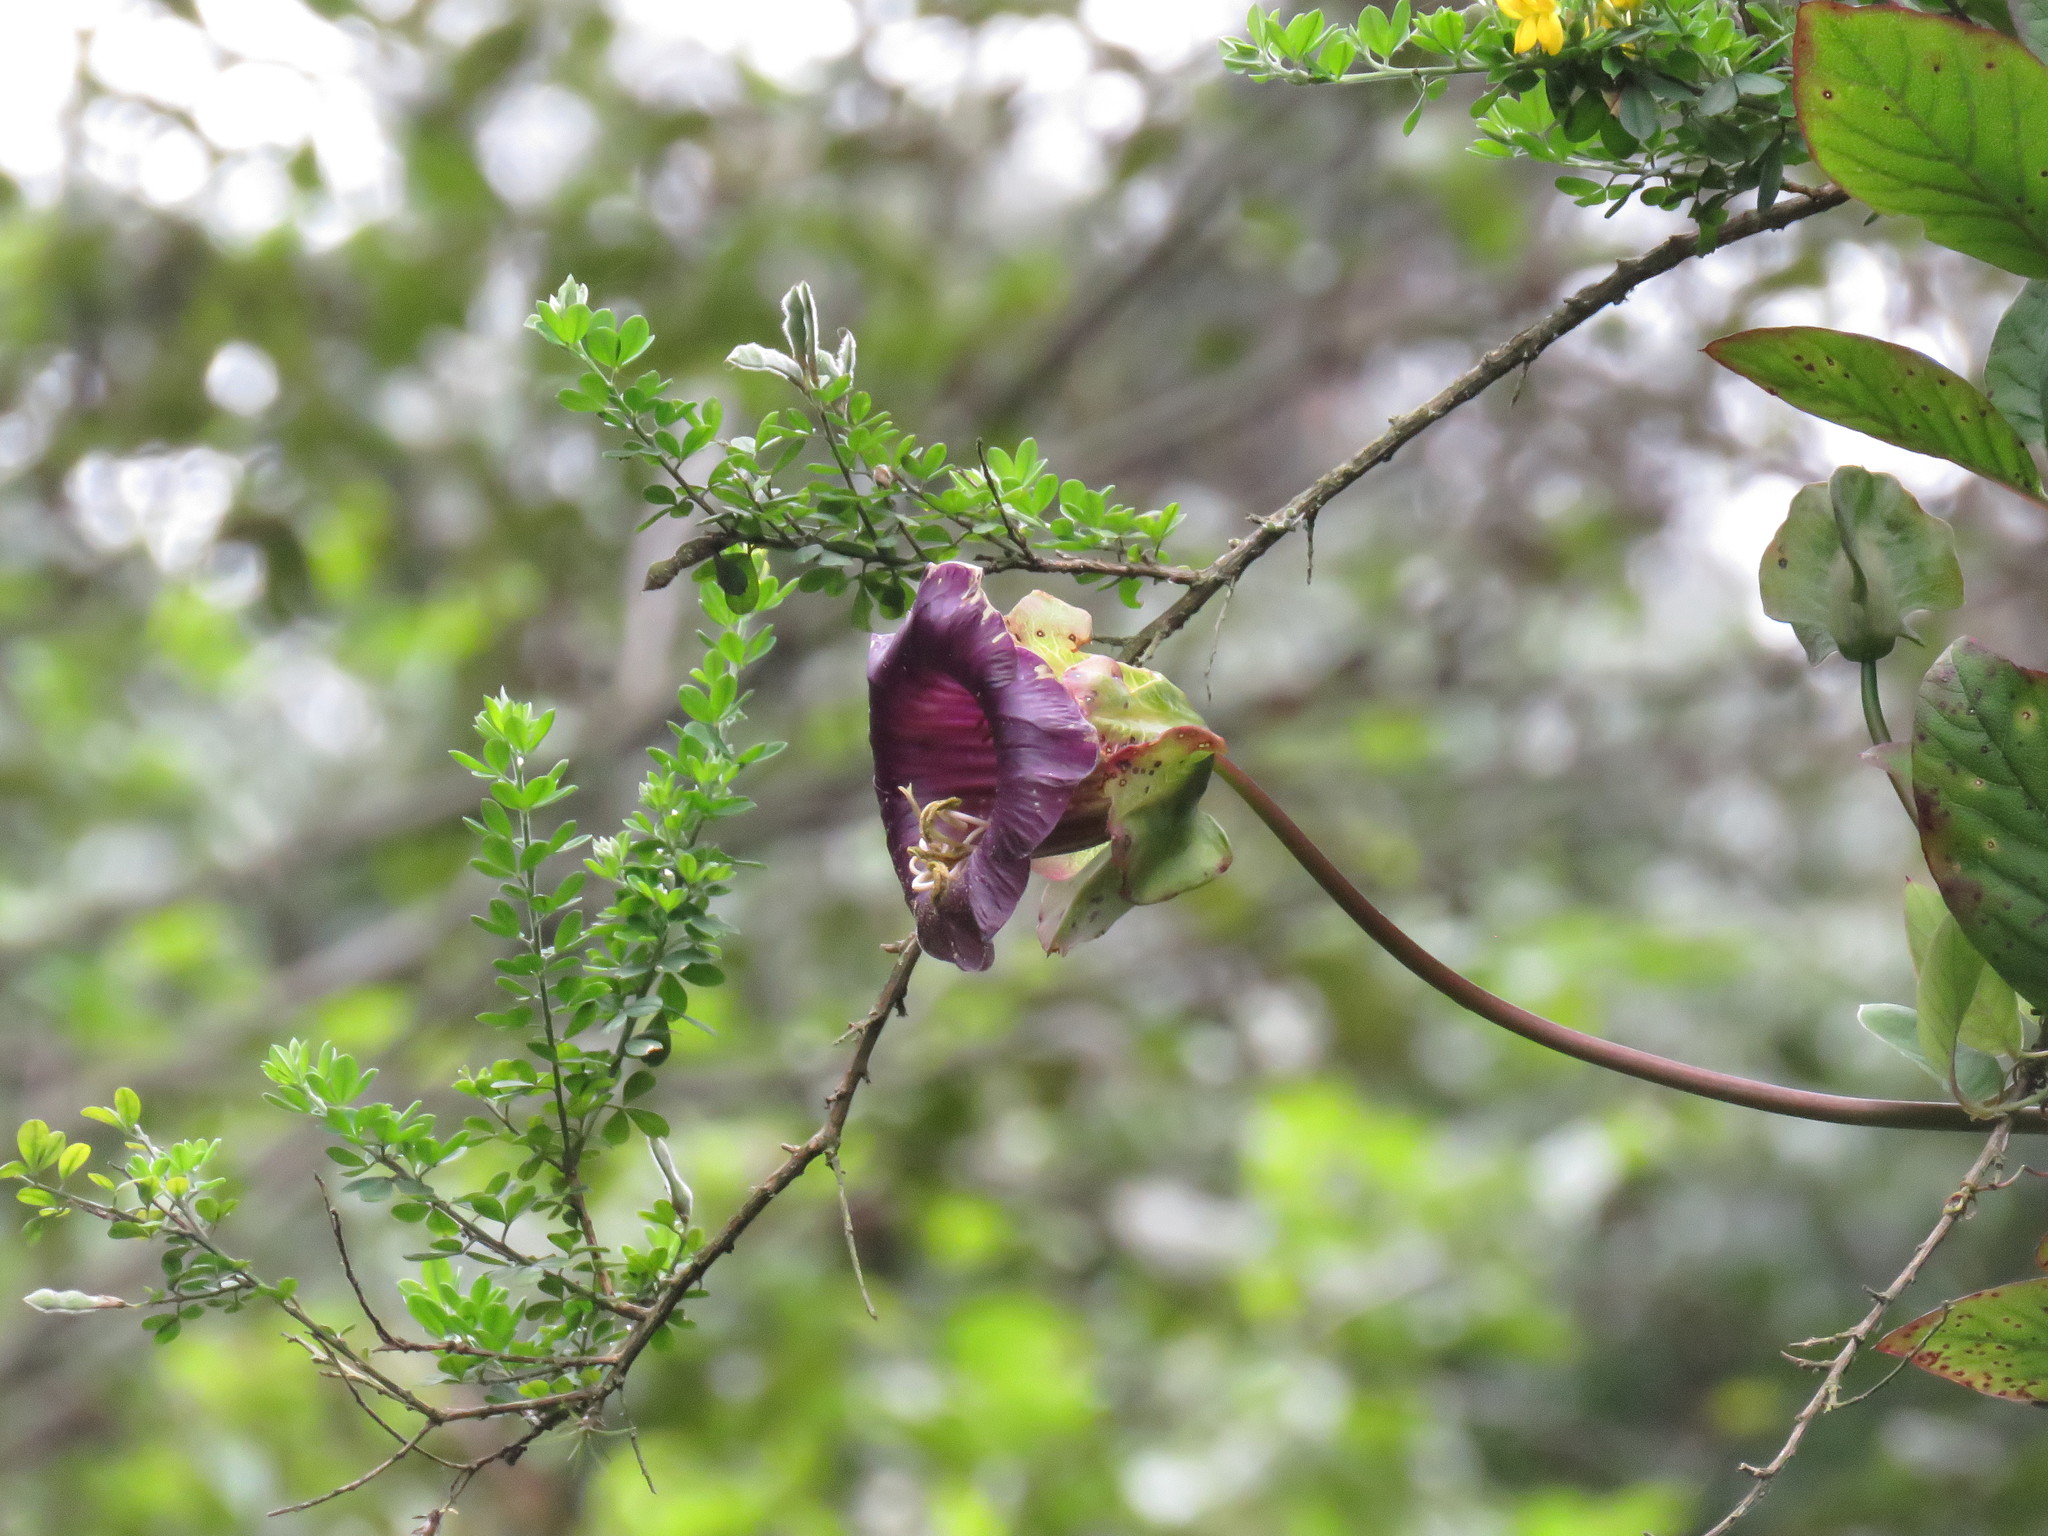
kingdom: Plantae
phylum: Tracheophyta
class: Magnoliopsida
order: Ericales
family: Polemoniaceae
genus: Cobaea
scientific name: Cobaea scandens
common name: Cup-and-saucer-vine
